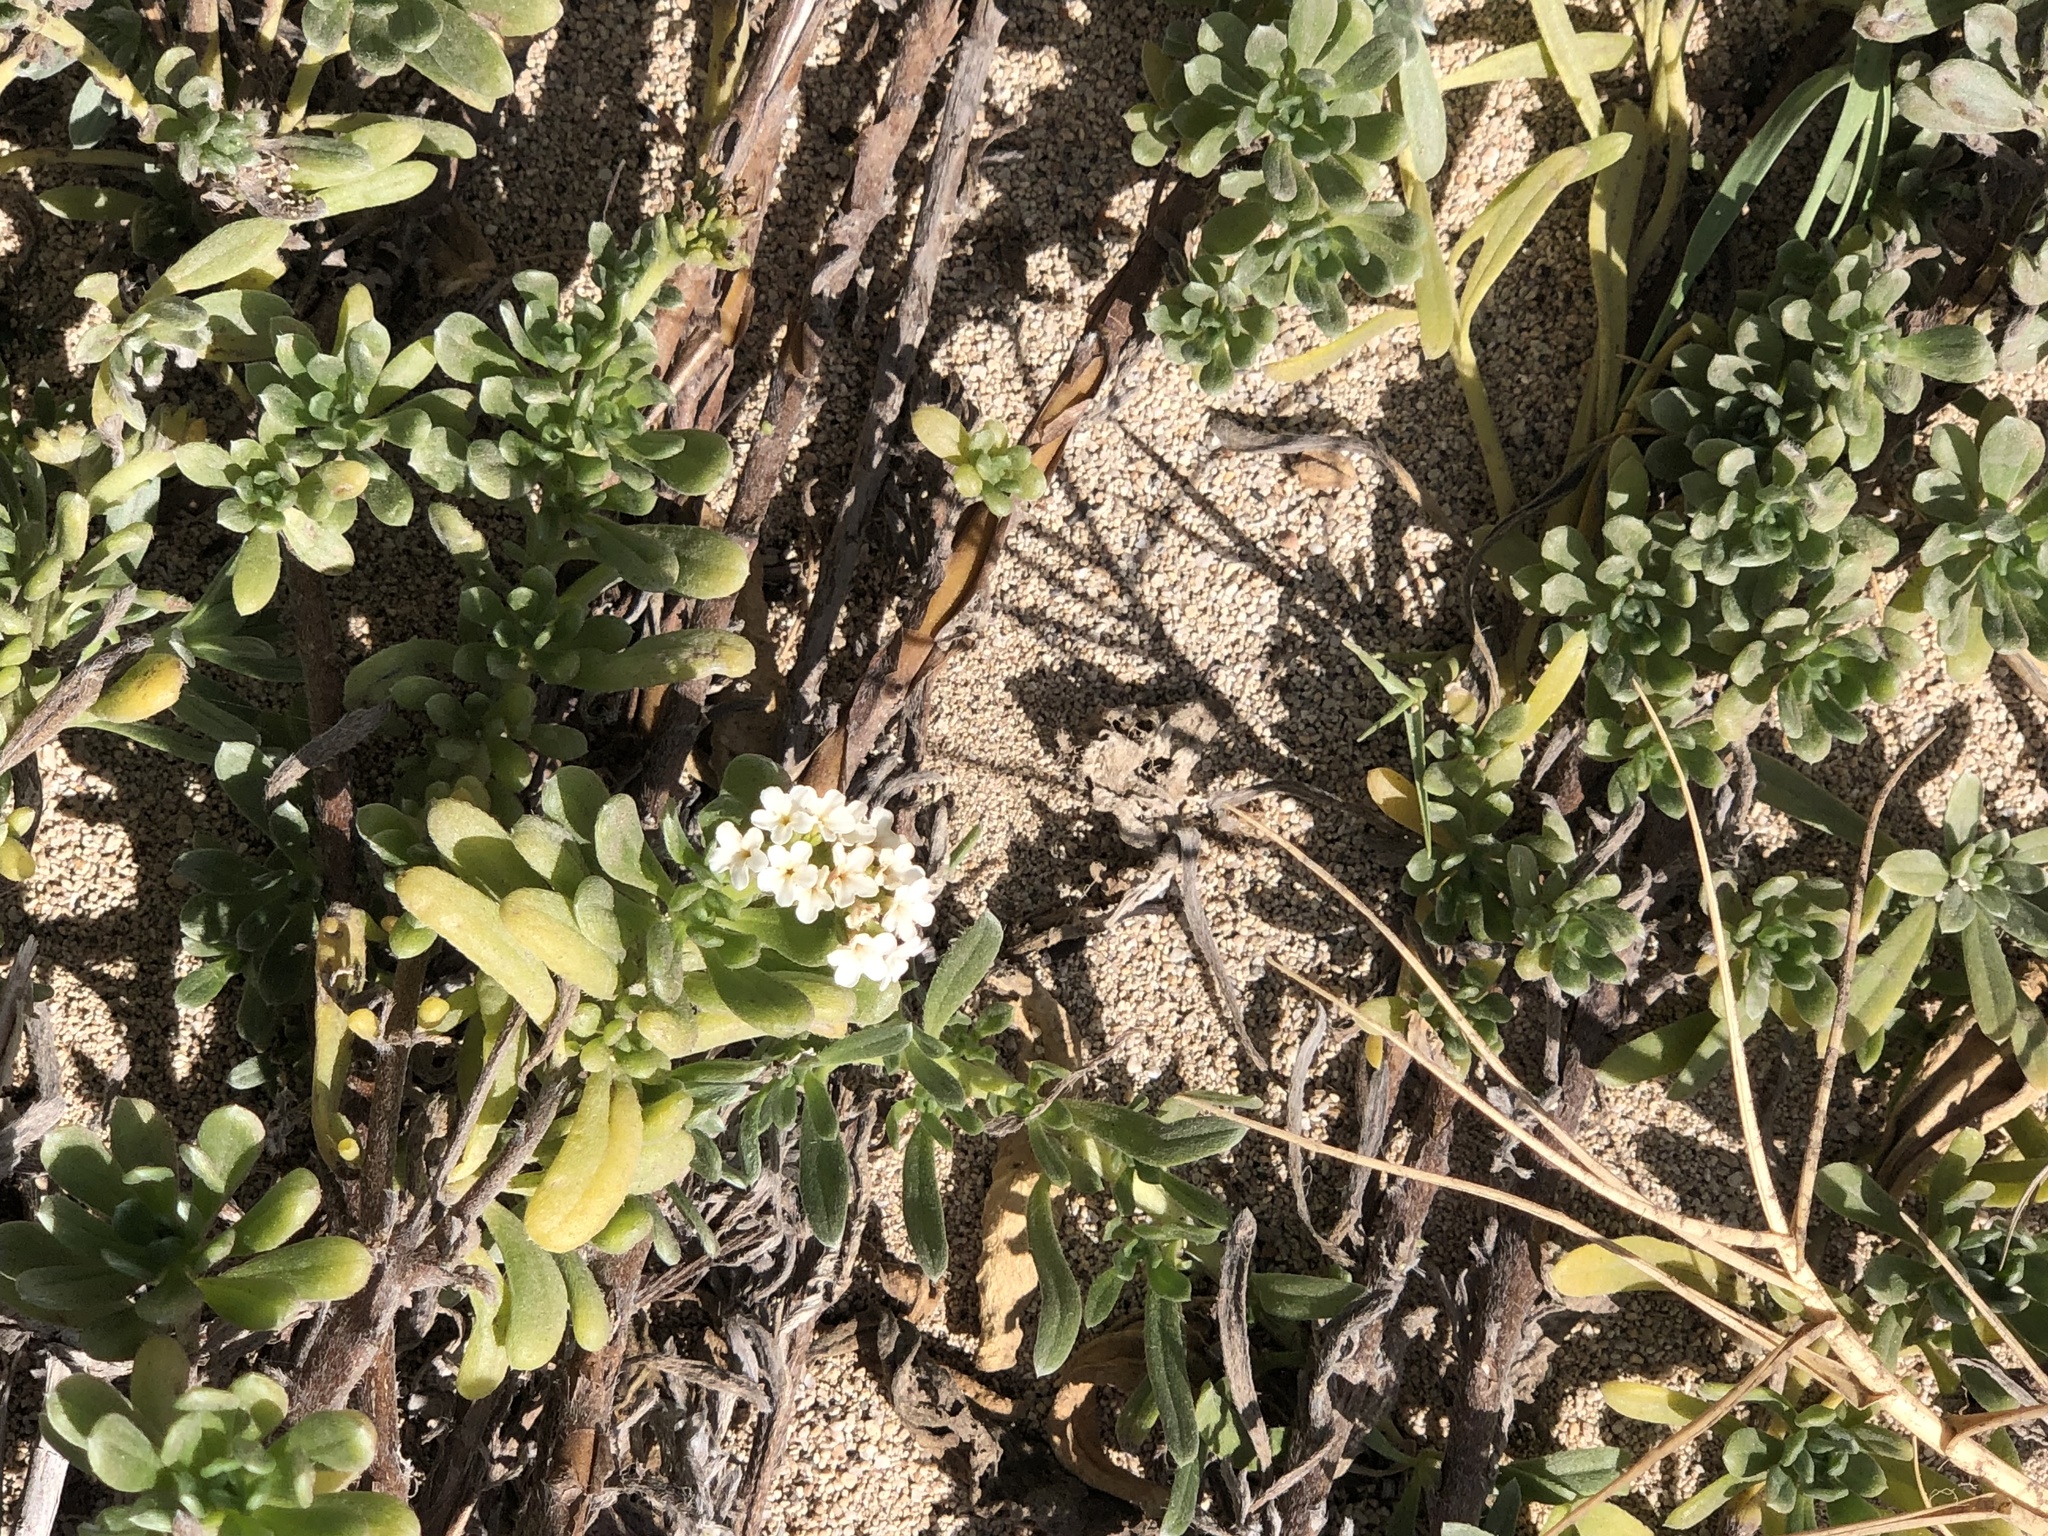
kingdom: Plantae
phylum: Tracheophyta
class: Magnoliopsida
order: Boraginales
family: Heliotropiaceae
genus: Heliotropium
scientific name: Heliotropium anomalum
